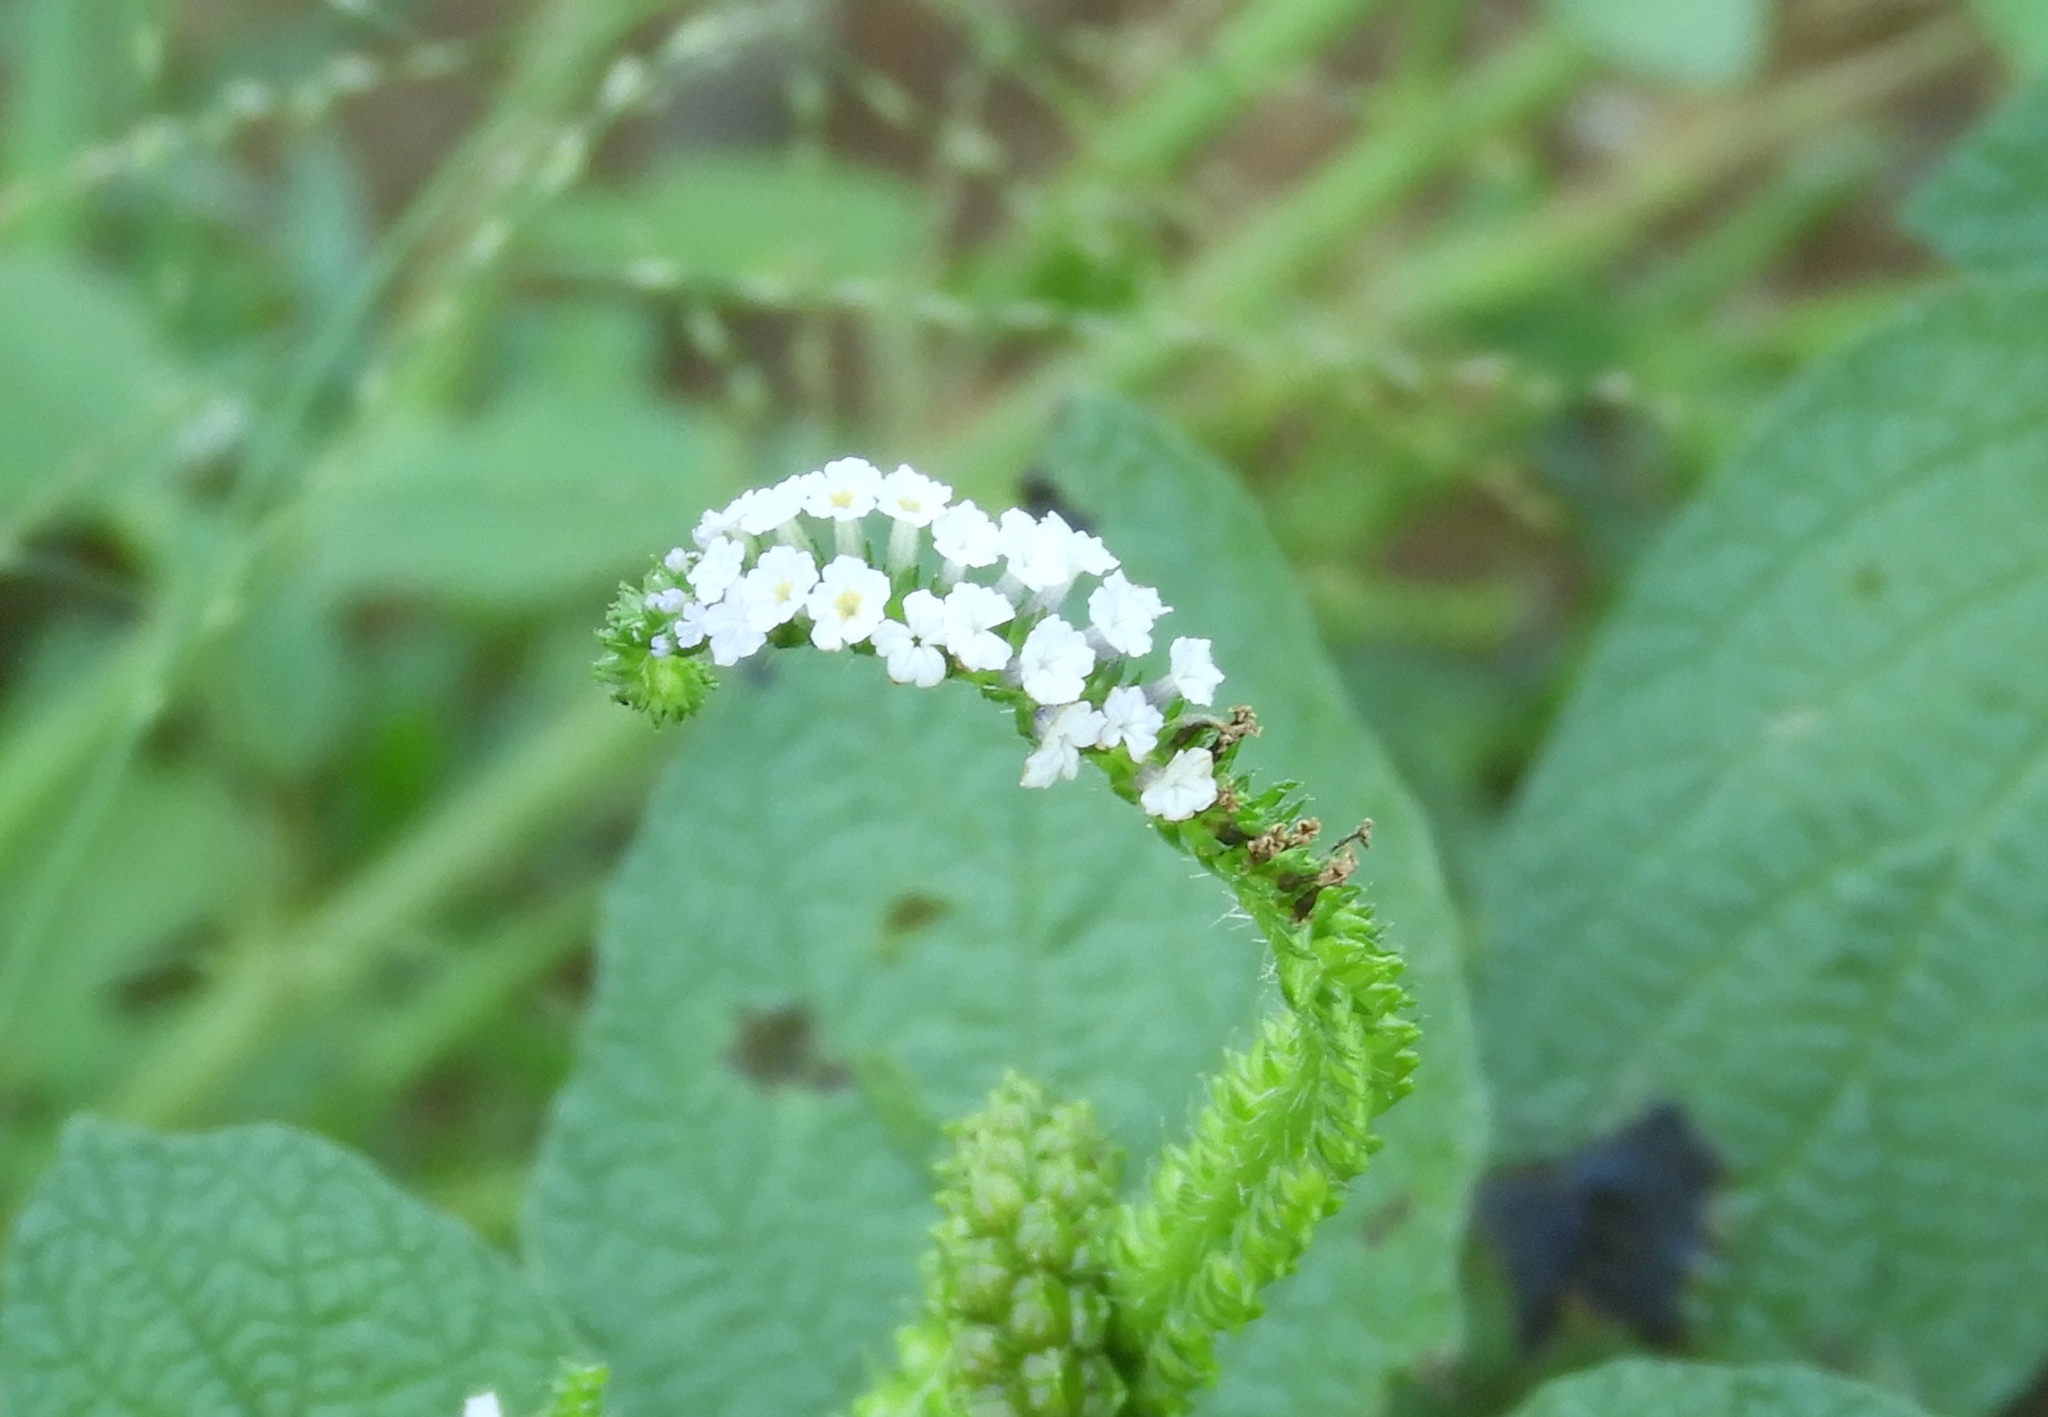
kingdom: Plantae
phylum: Tracheophyta
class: Magnoliopsida
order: Boraginales
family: Heliotropiaceae
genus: Heliotropium
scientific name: Heliotropium indicum
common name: Indian heliotrope
